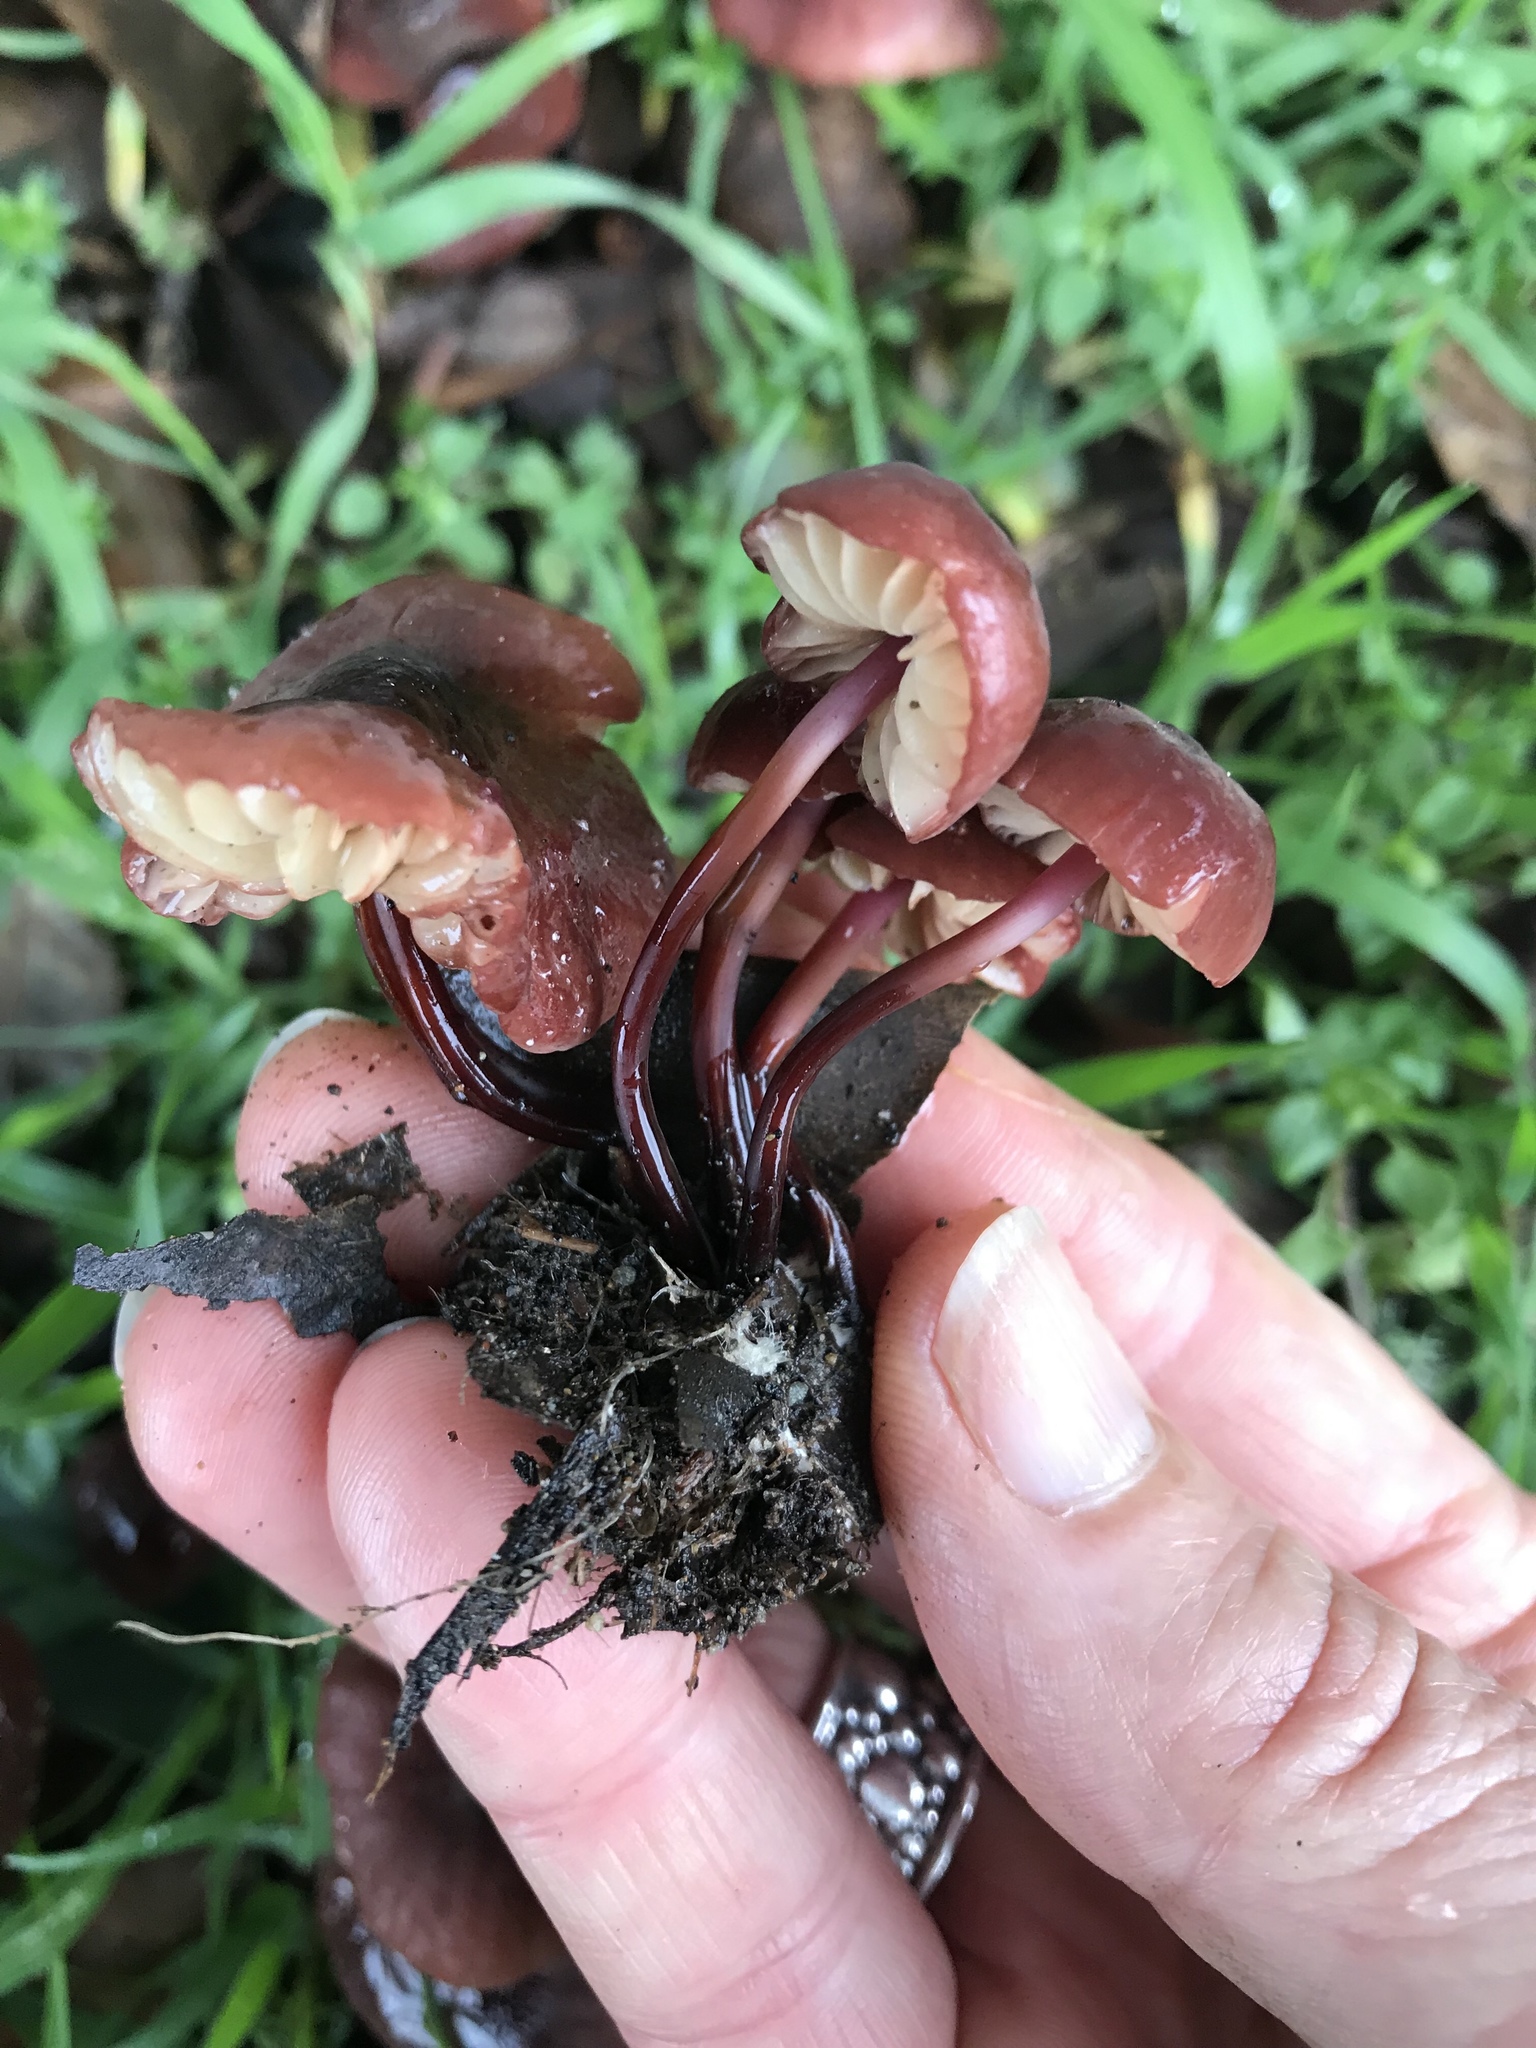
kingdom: Fungi
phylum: Basidiomycota
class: Agaricomycetes
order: Agaricales
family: Marasmiaceae
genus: Marasmius
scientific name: Marasmius plicatulus
